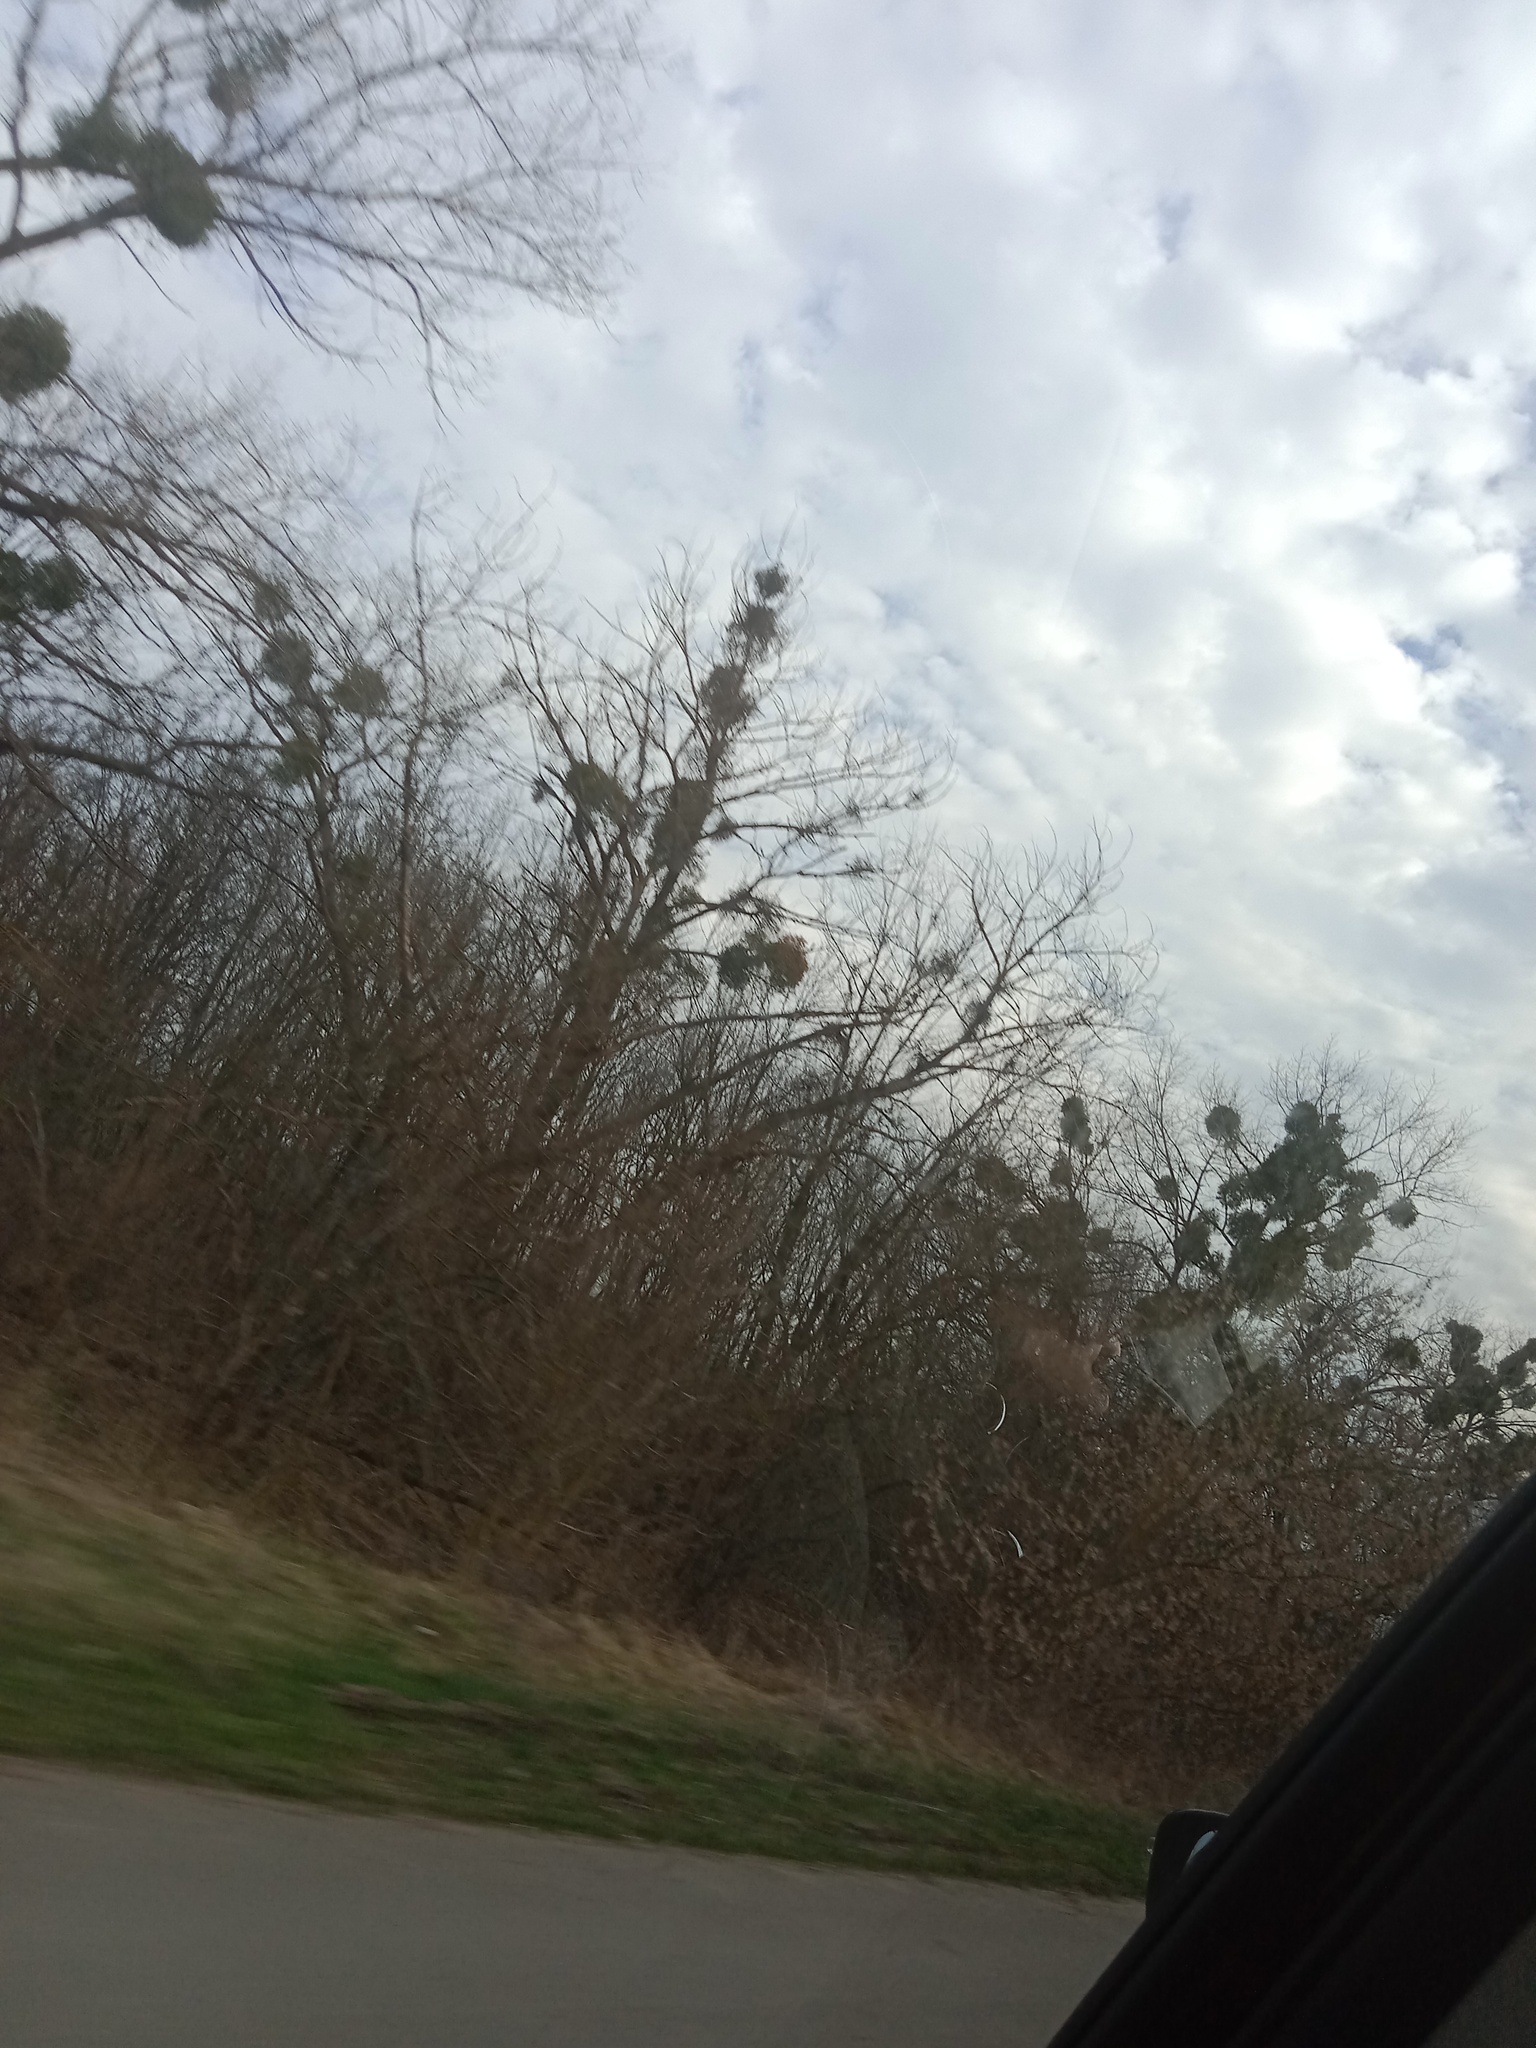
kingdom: Plantae
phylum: Tracheophyta
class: Magnoliopsida
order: Santalales
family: Viscaceae
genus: Viscum
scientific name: Viscum album
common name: Mistletoe
